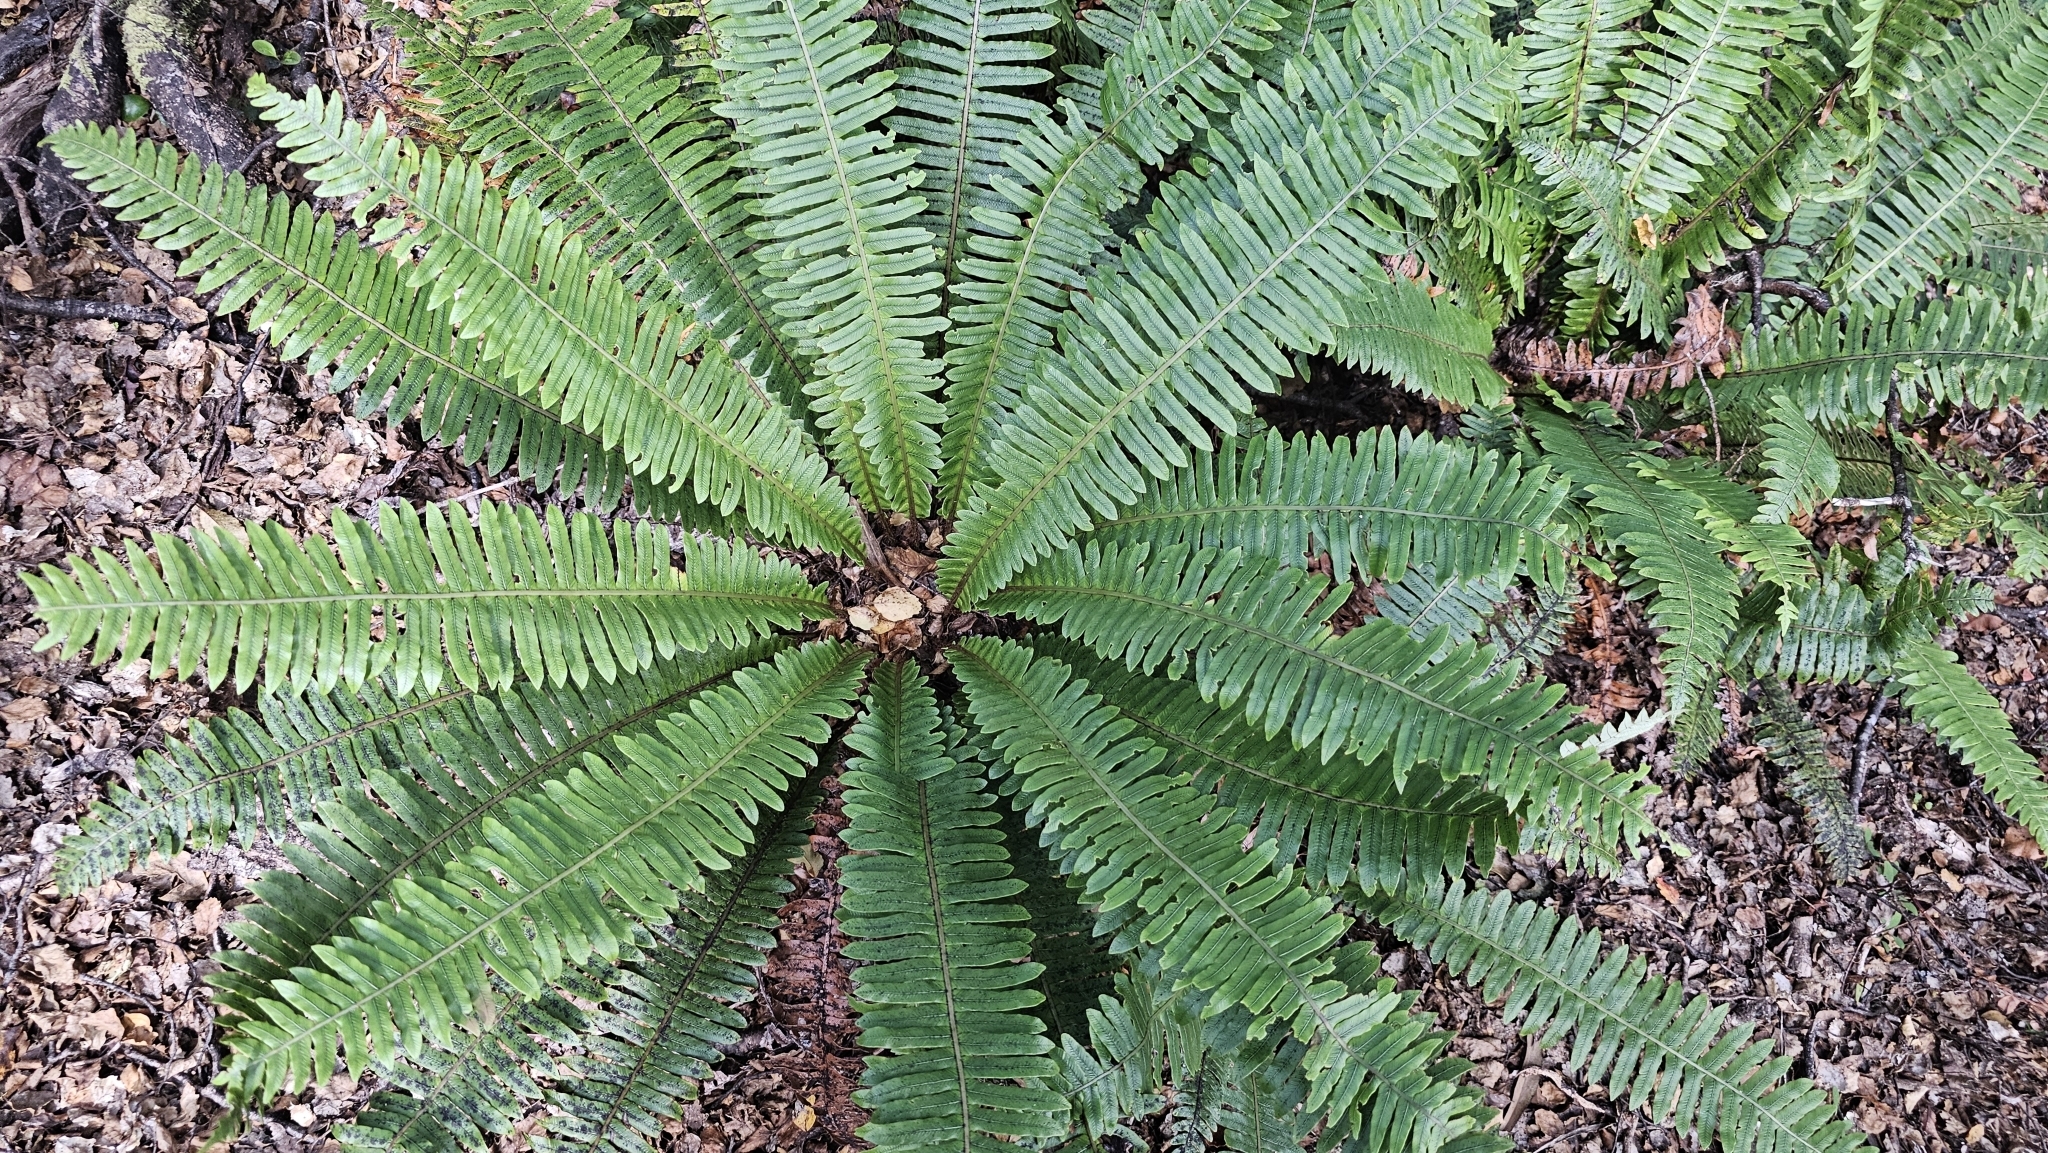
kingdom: Plantae
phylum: Tracheophyta
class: Polypodiopsida
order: Polypodiales
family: Blechnaceae
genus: Lomaria
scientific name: Lomaria discolor
